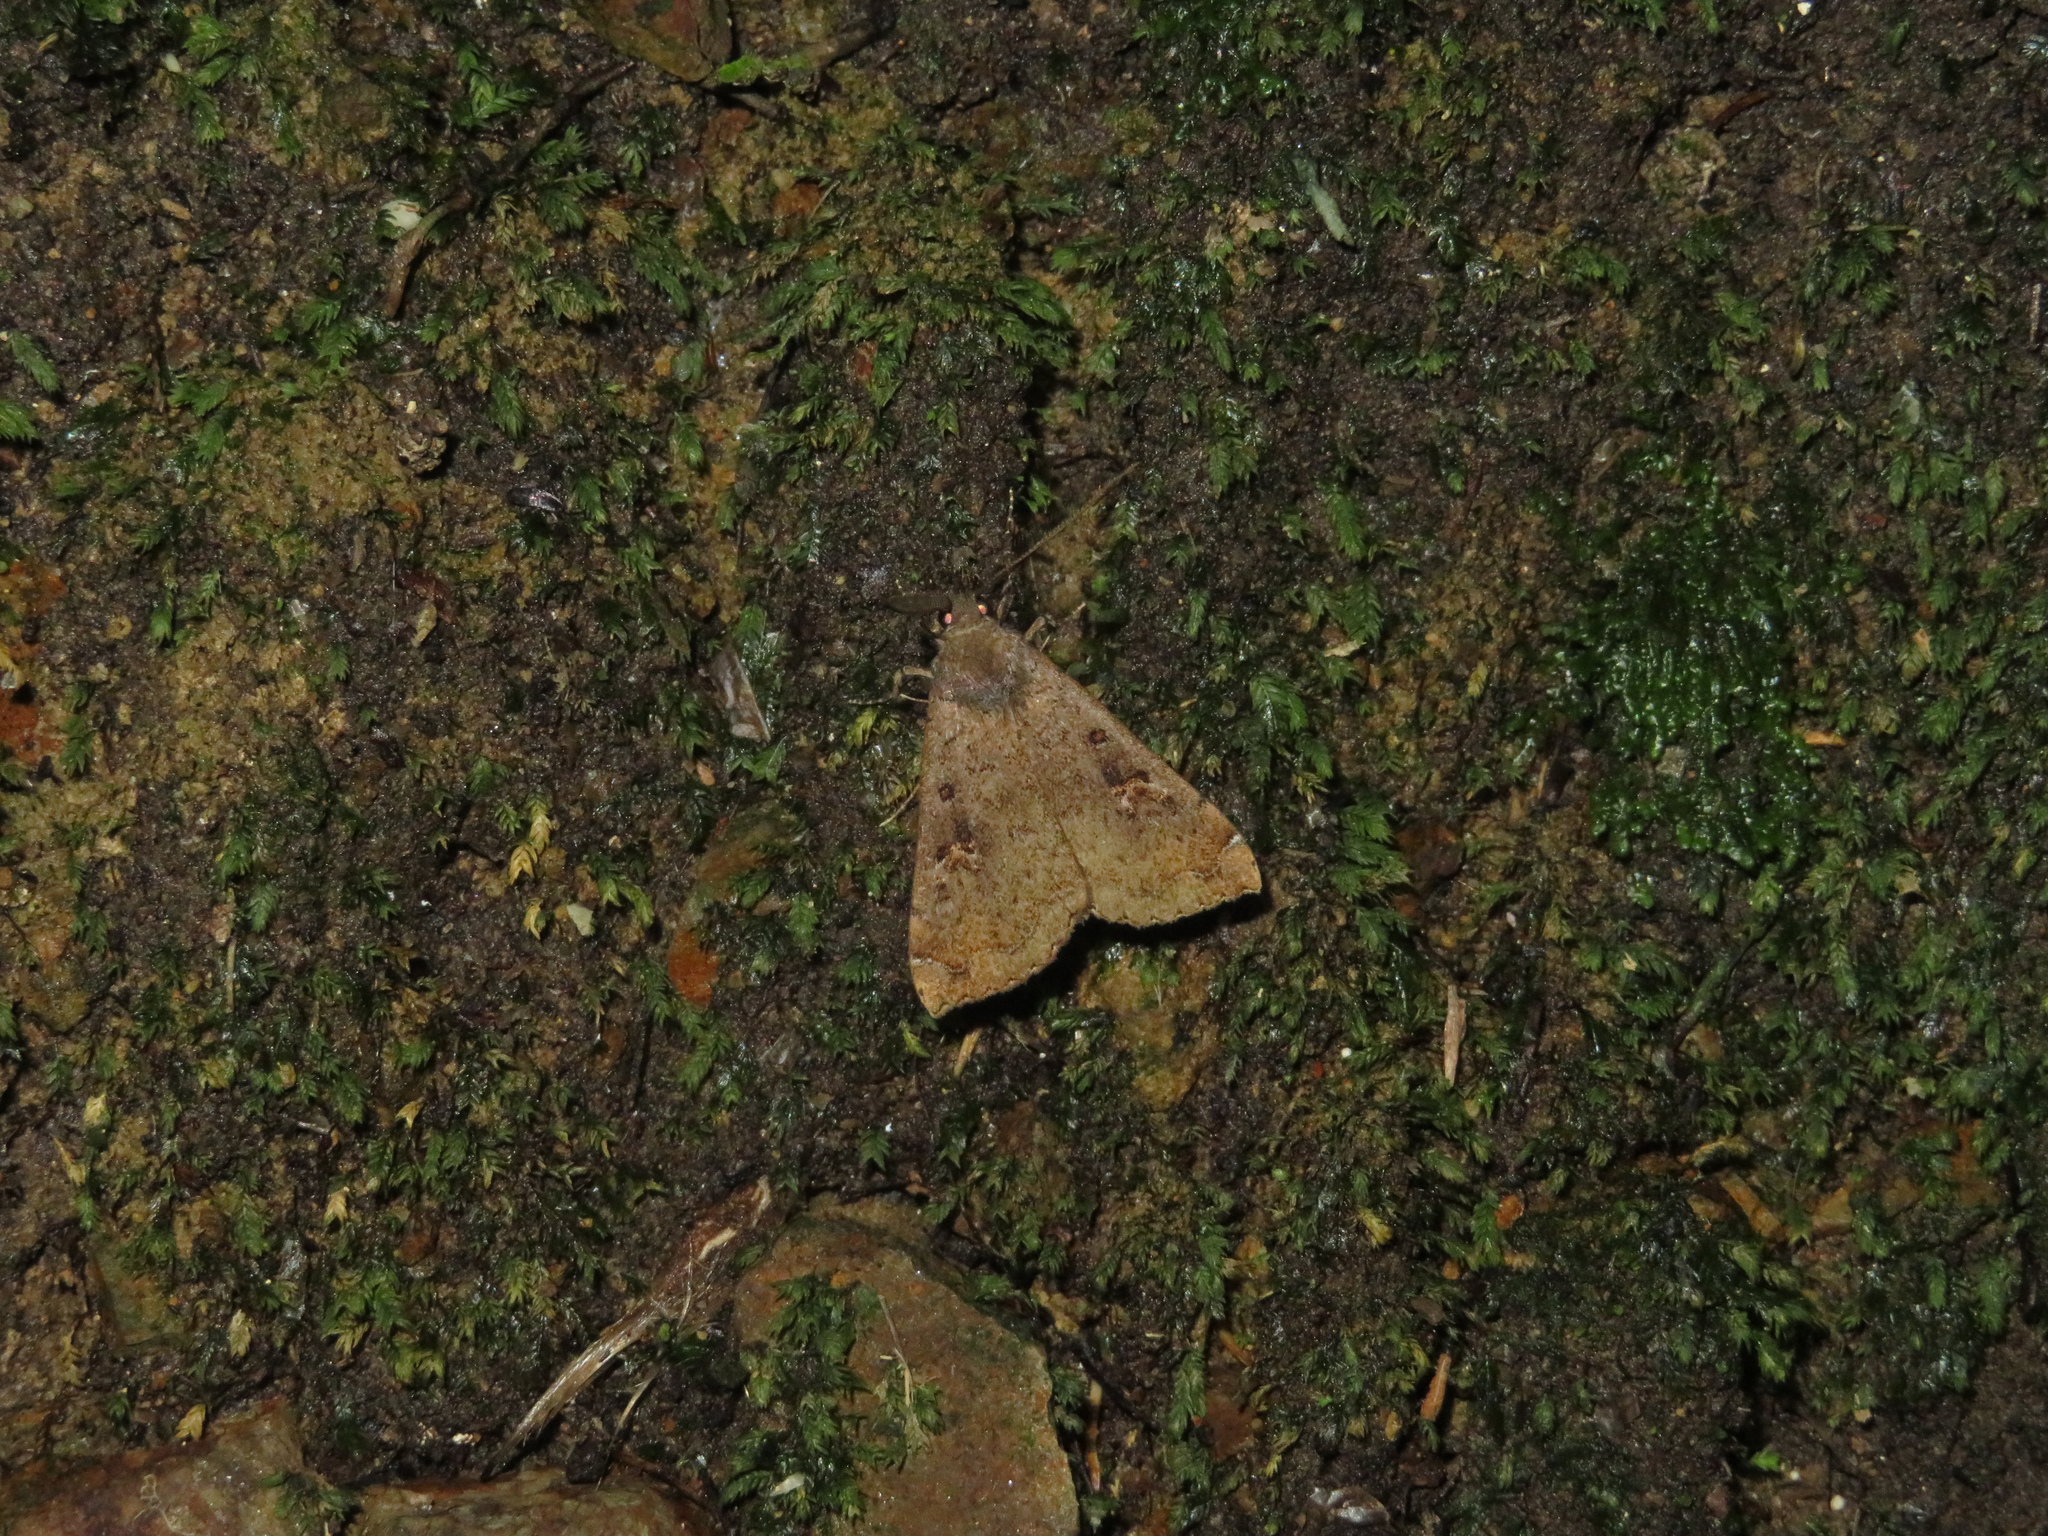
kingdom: Animalia
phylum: Arthropoda
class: Insecta
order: Lepidoptera
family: Erebidae
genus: Rhapsa
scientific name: Rhapsa scotosialis
